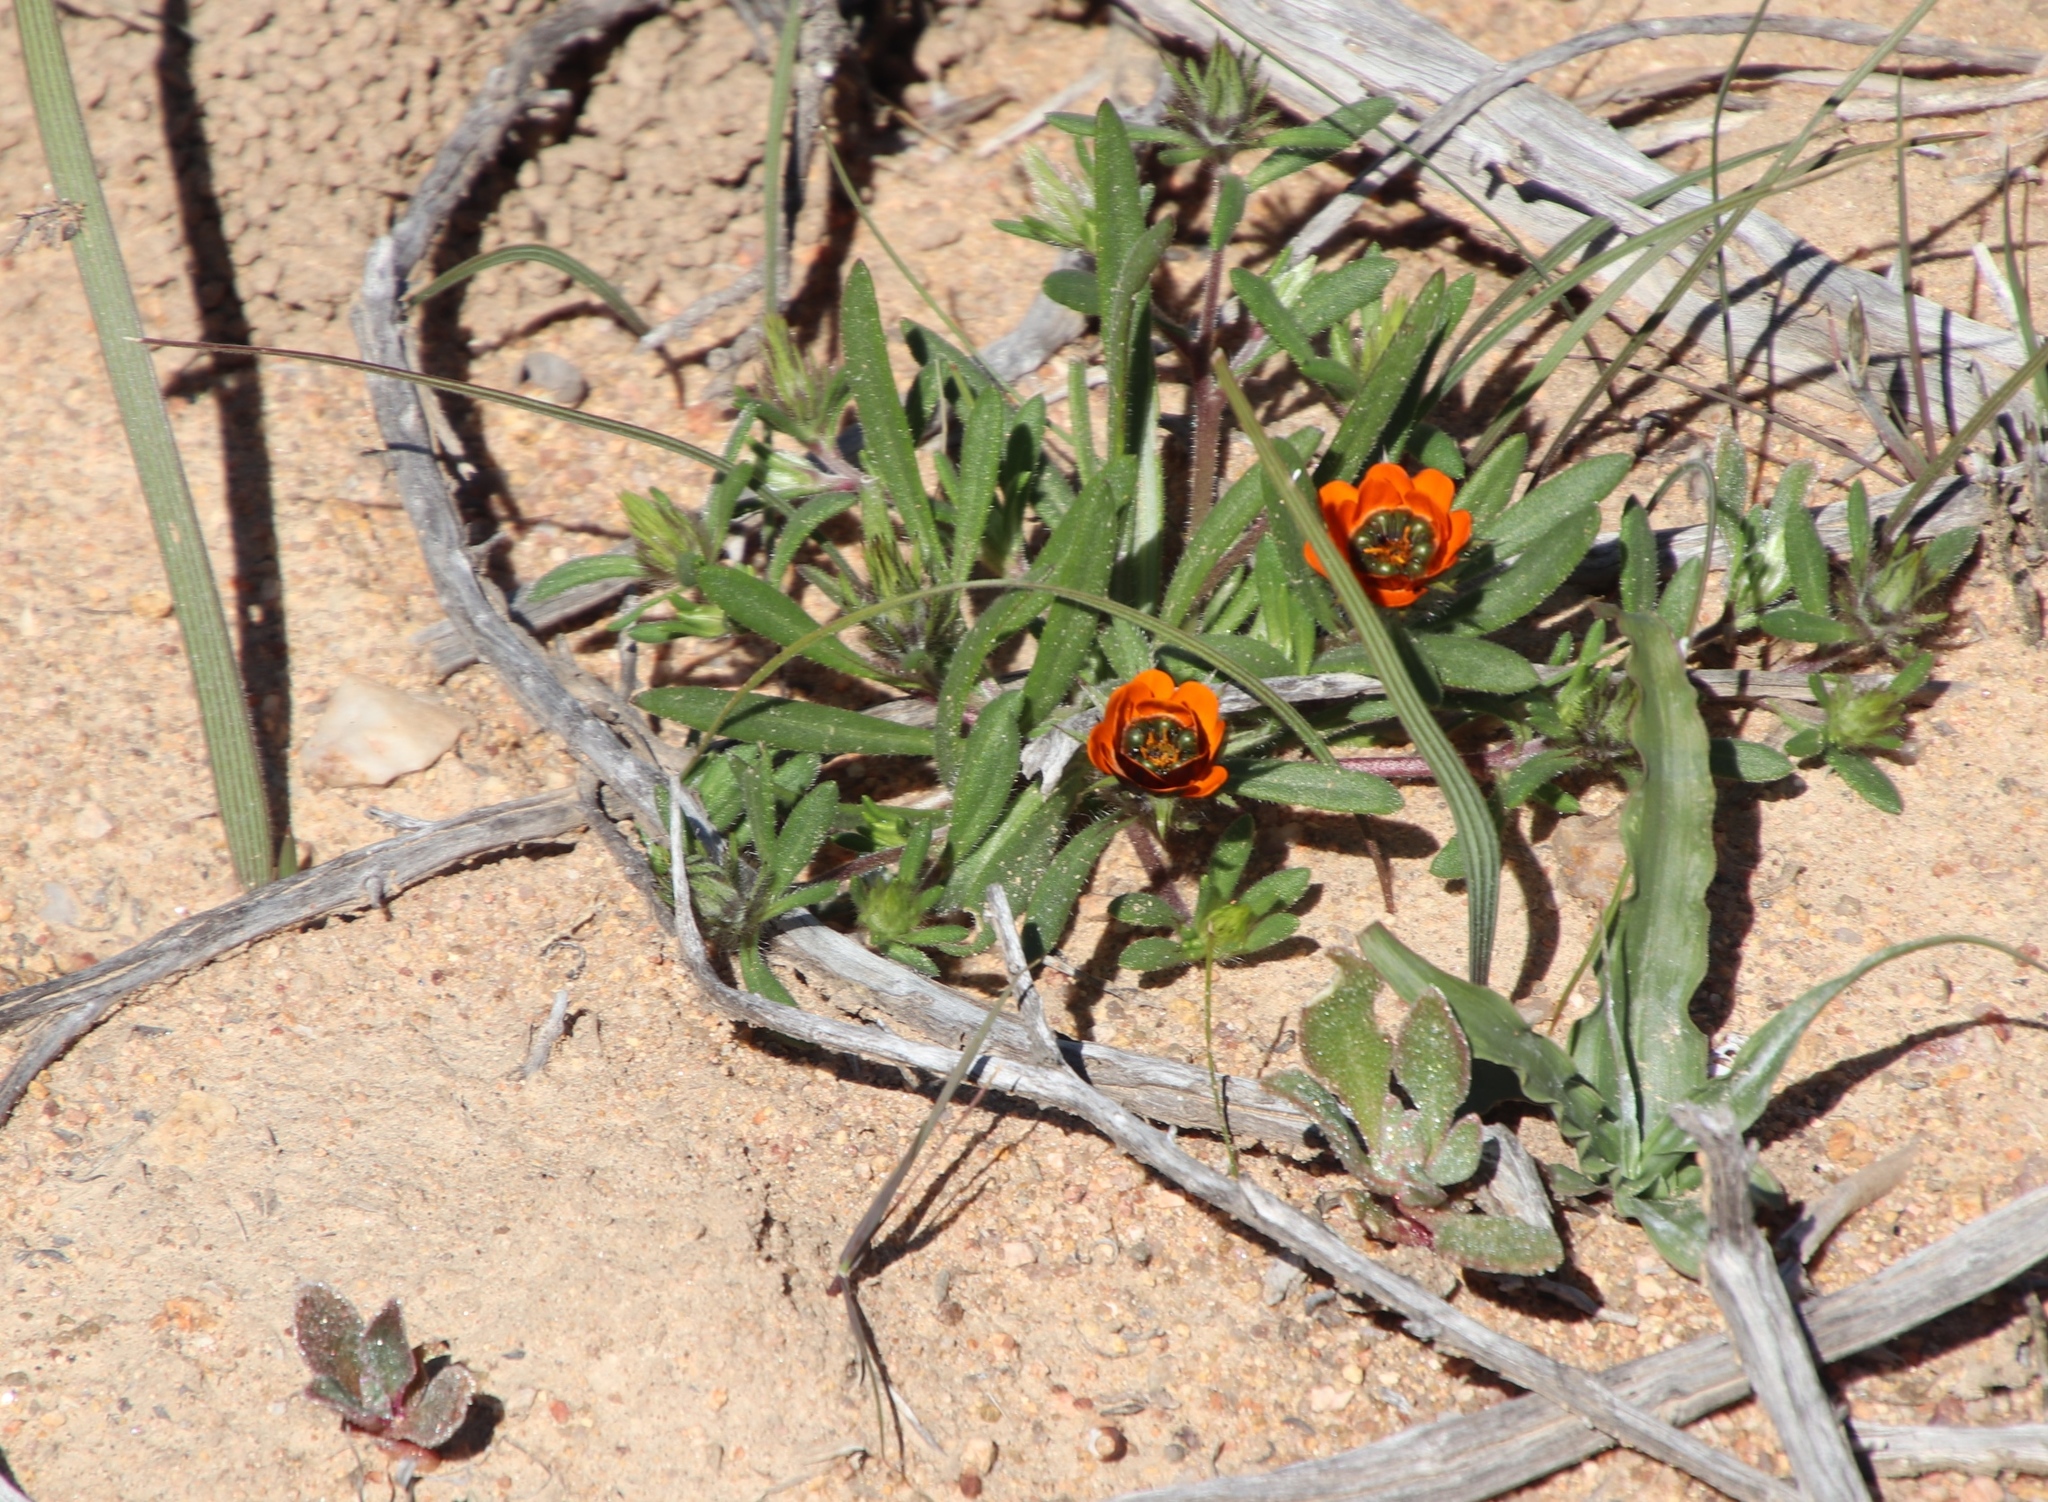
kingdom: Plantae
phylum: Tracheophyta
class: Magnoliopsida
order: Asterales
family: Asteraceae
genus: Gorteria
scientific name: Gorteria diffusa
